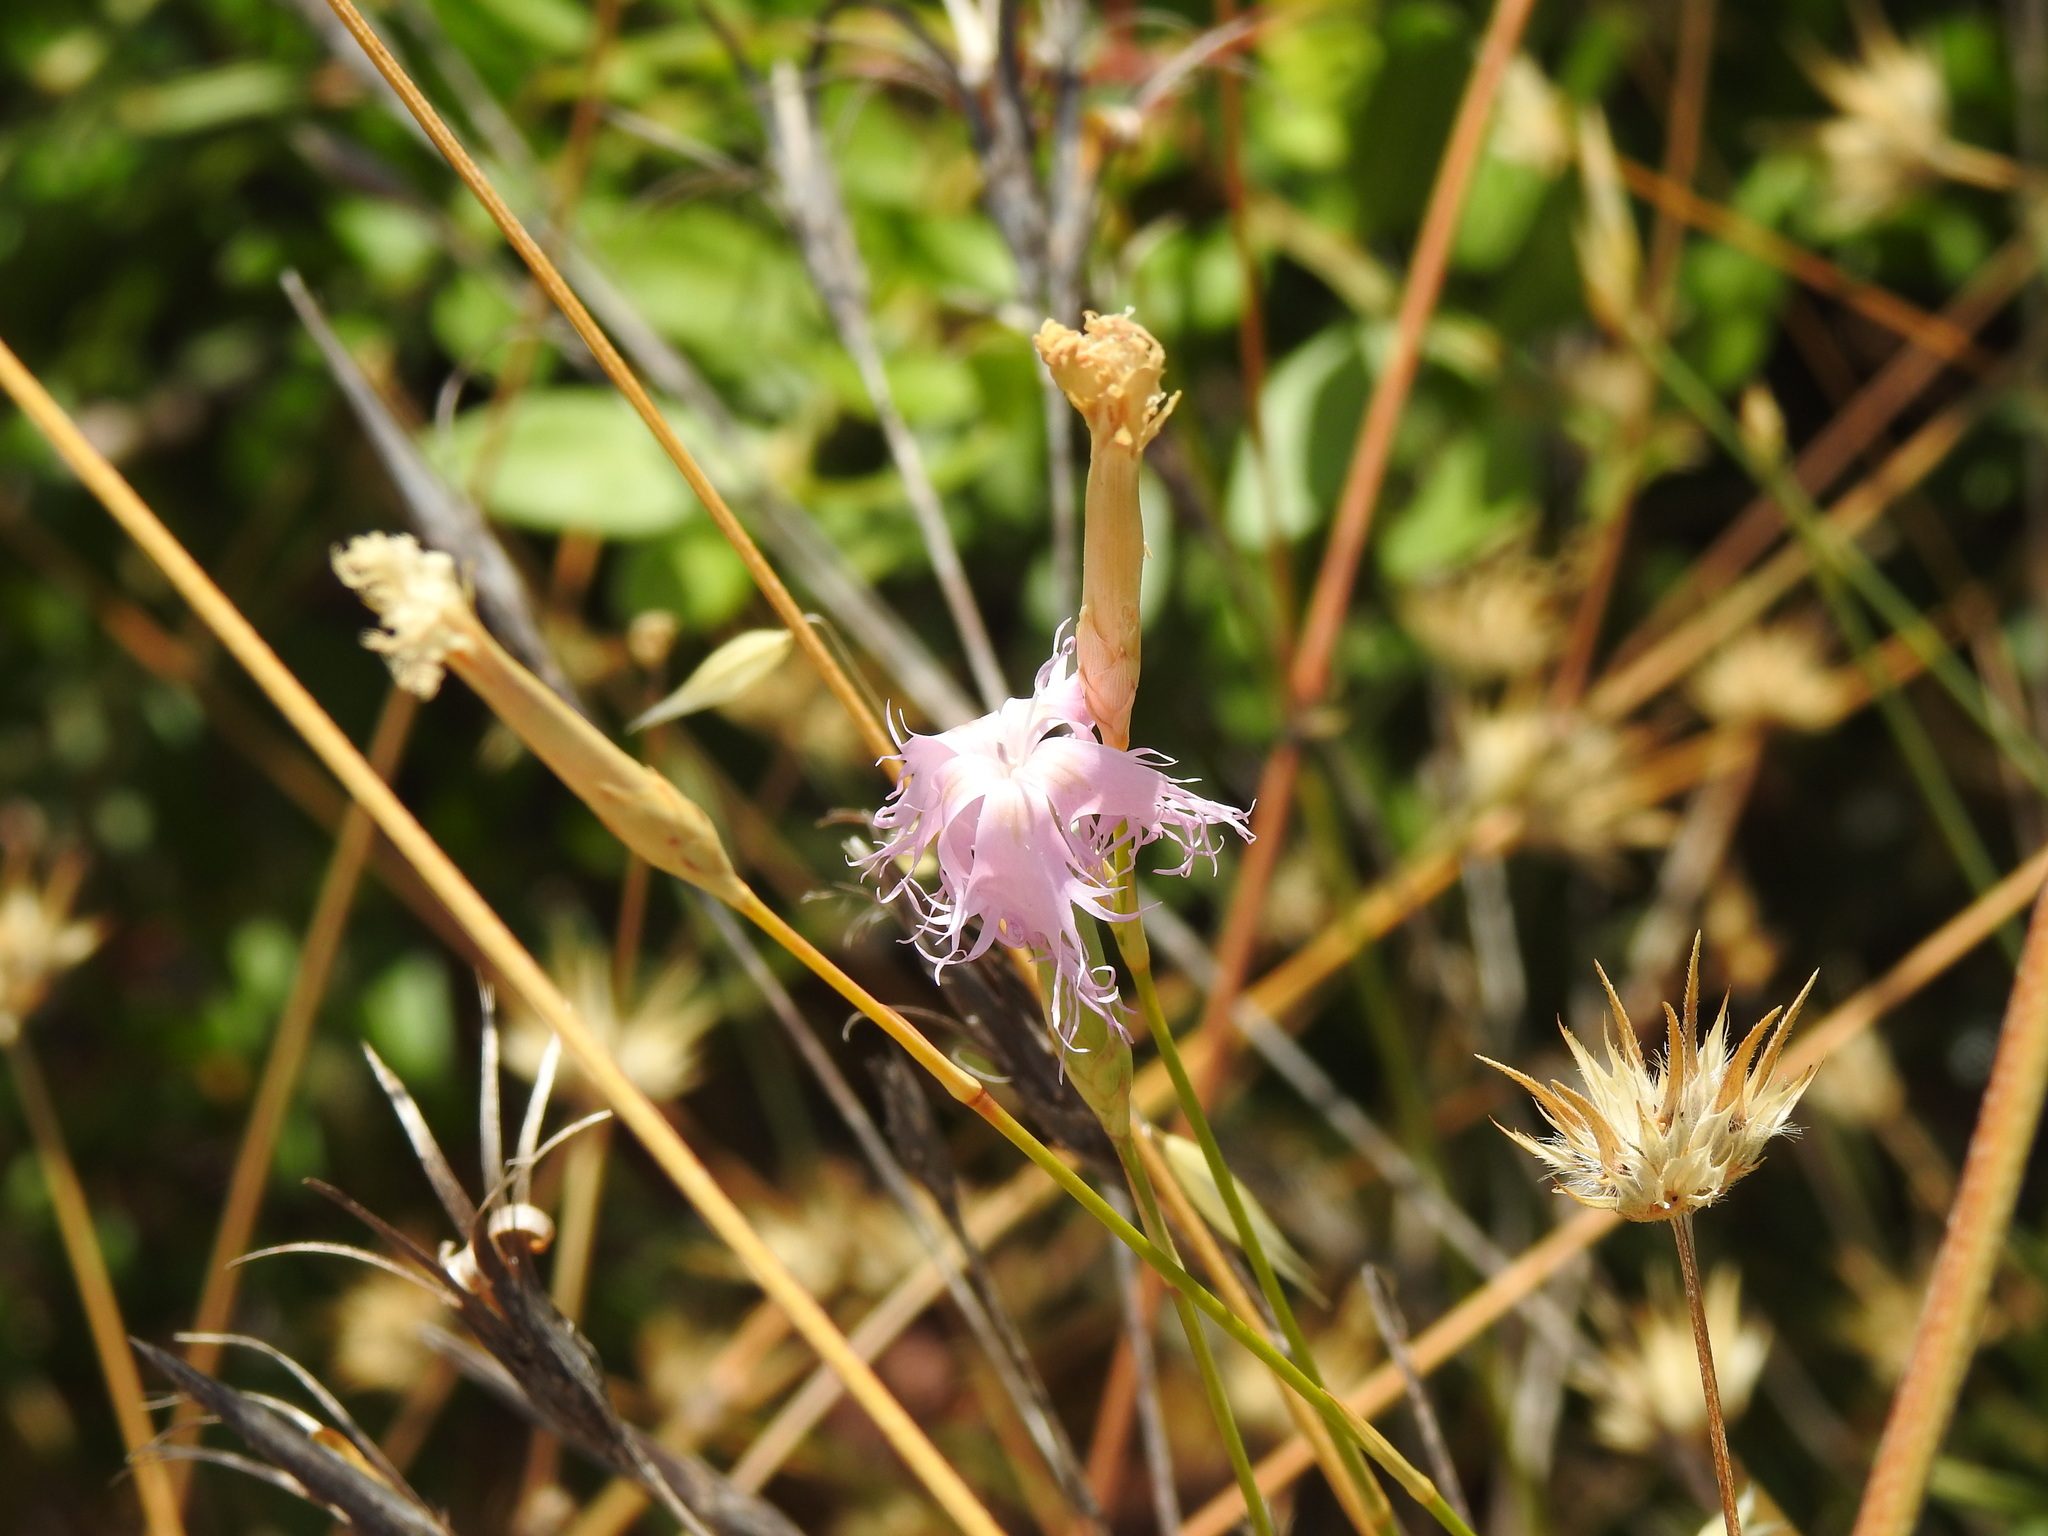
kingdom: Plantae
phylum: Tracheophyta
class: Magnoliopsida
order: Caryophyllales
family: Caryophyllaceae
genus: Dianthus
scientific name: Dianthus broteri
